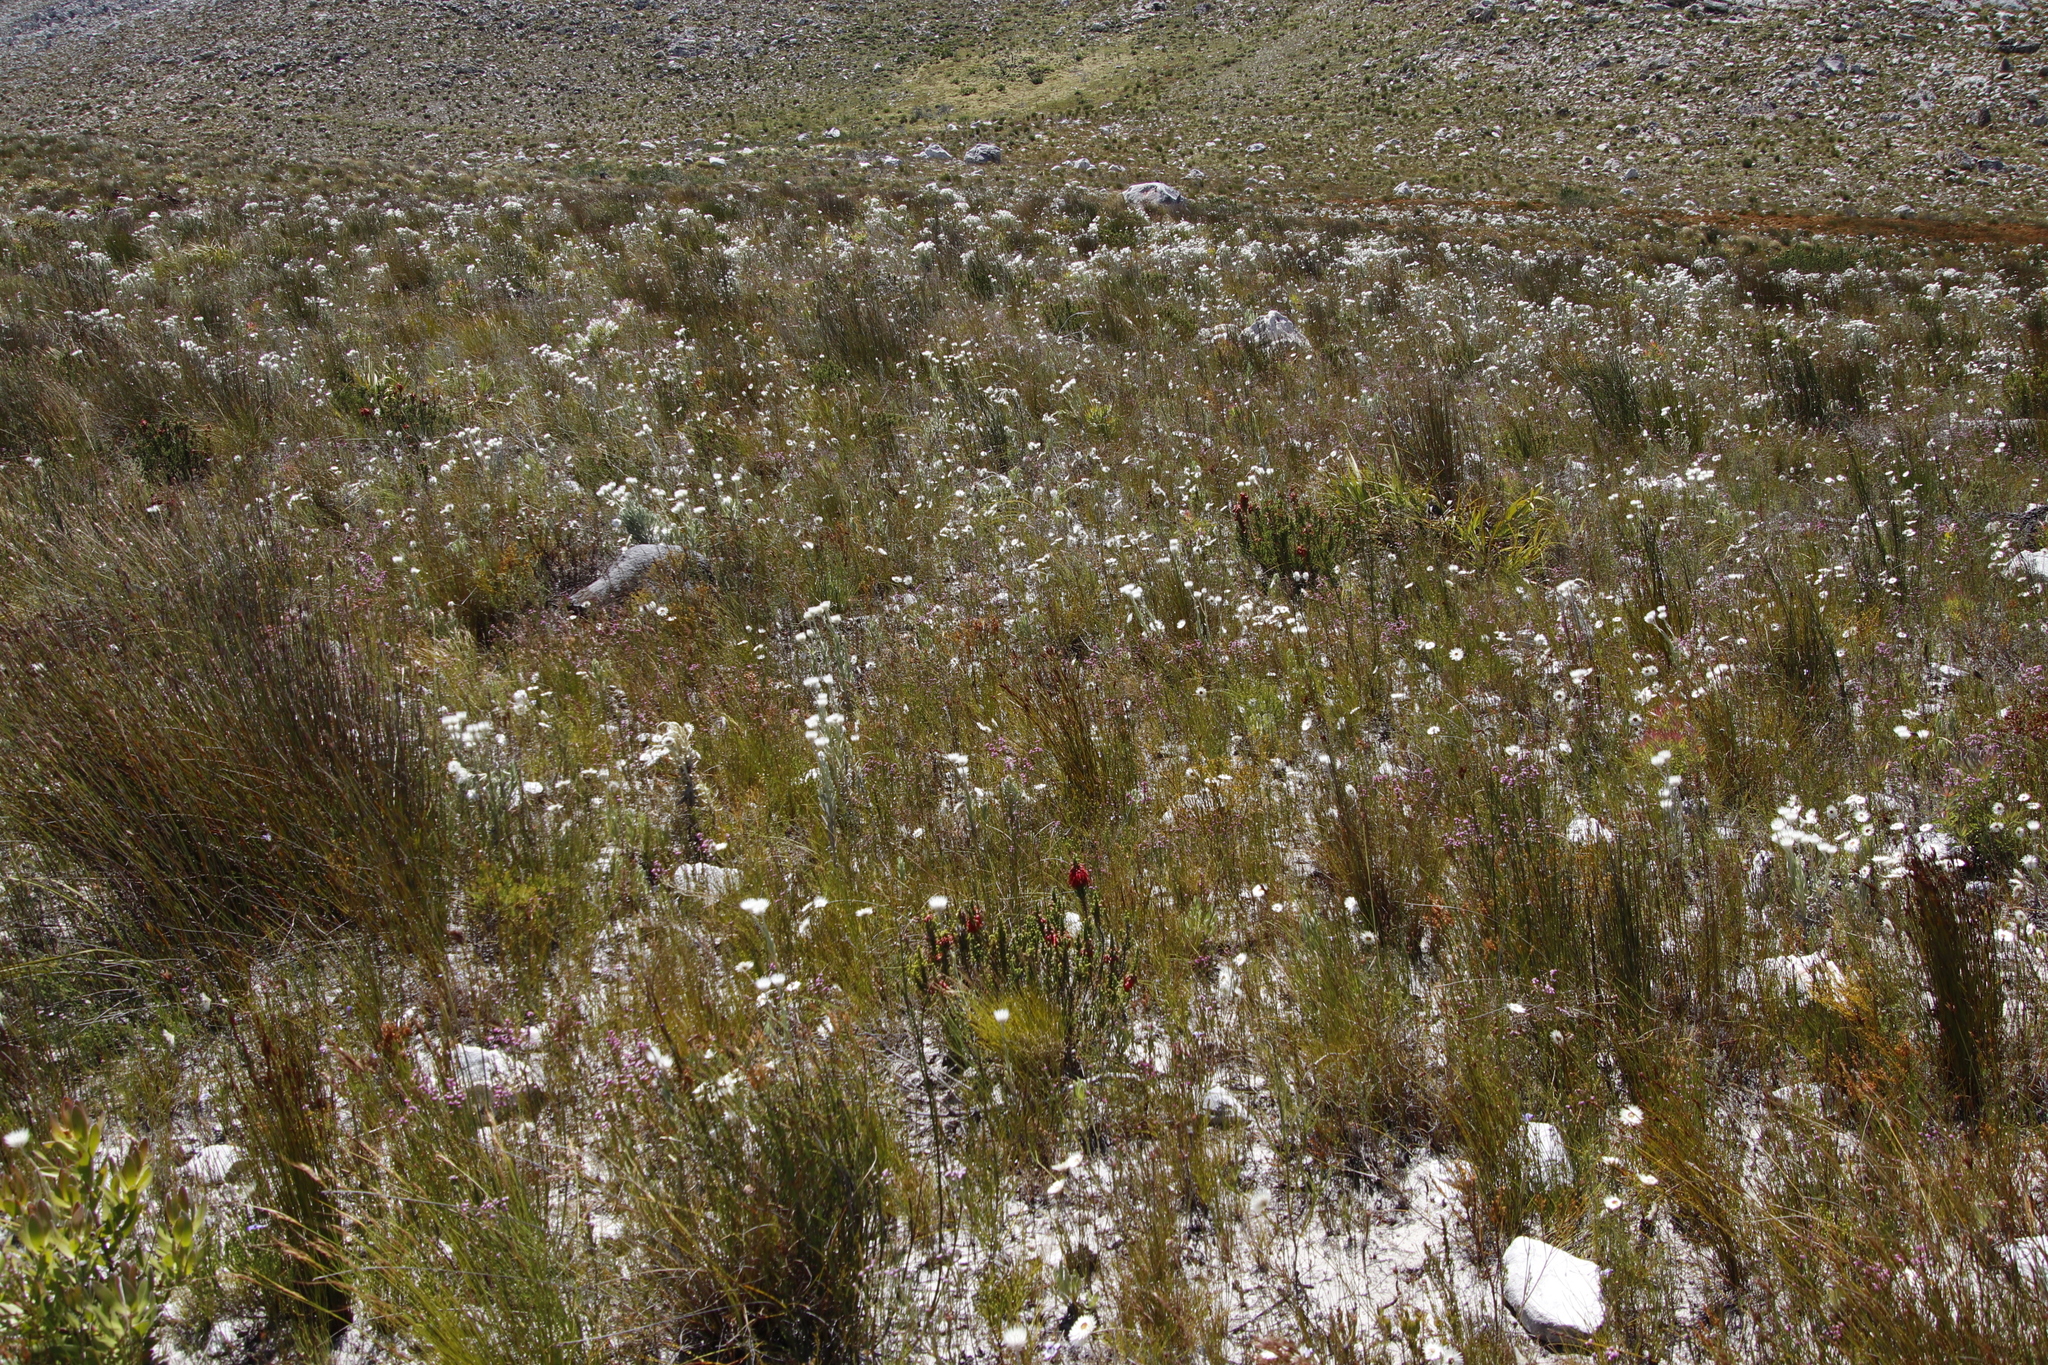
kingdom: Plantae
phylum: Tracheophyta
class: Magnoliopsida
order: Asterales
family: Asteraceae
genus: Edmondia
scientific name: Edmondia sesamoides
